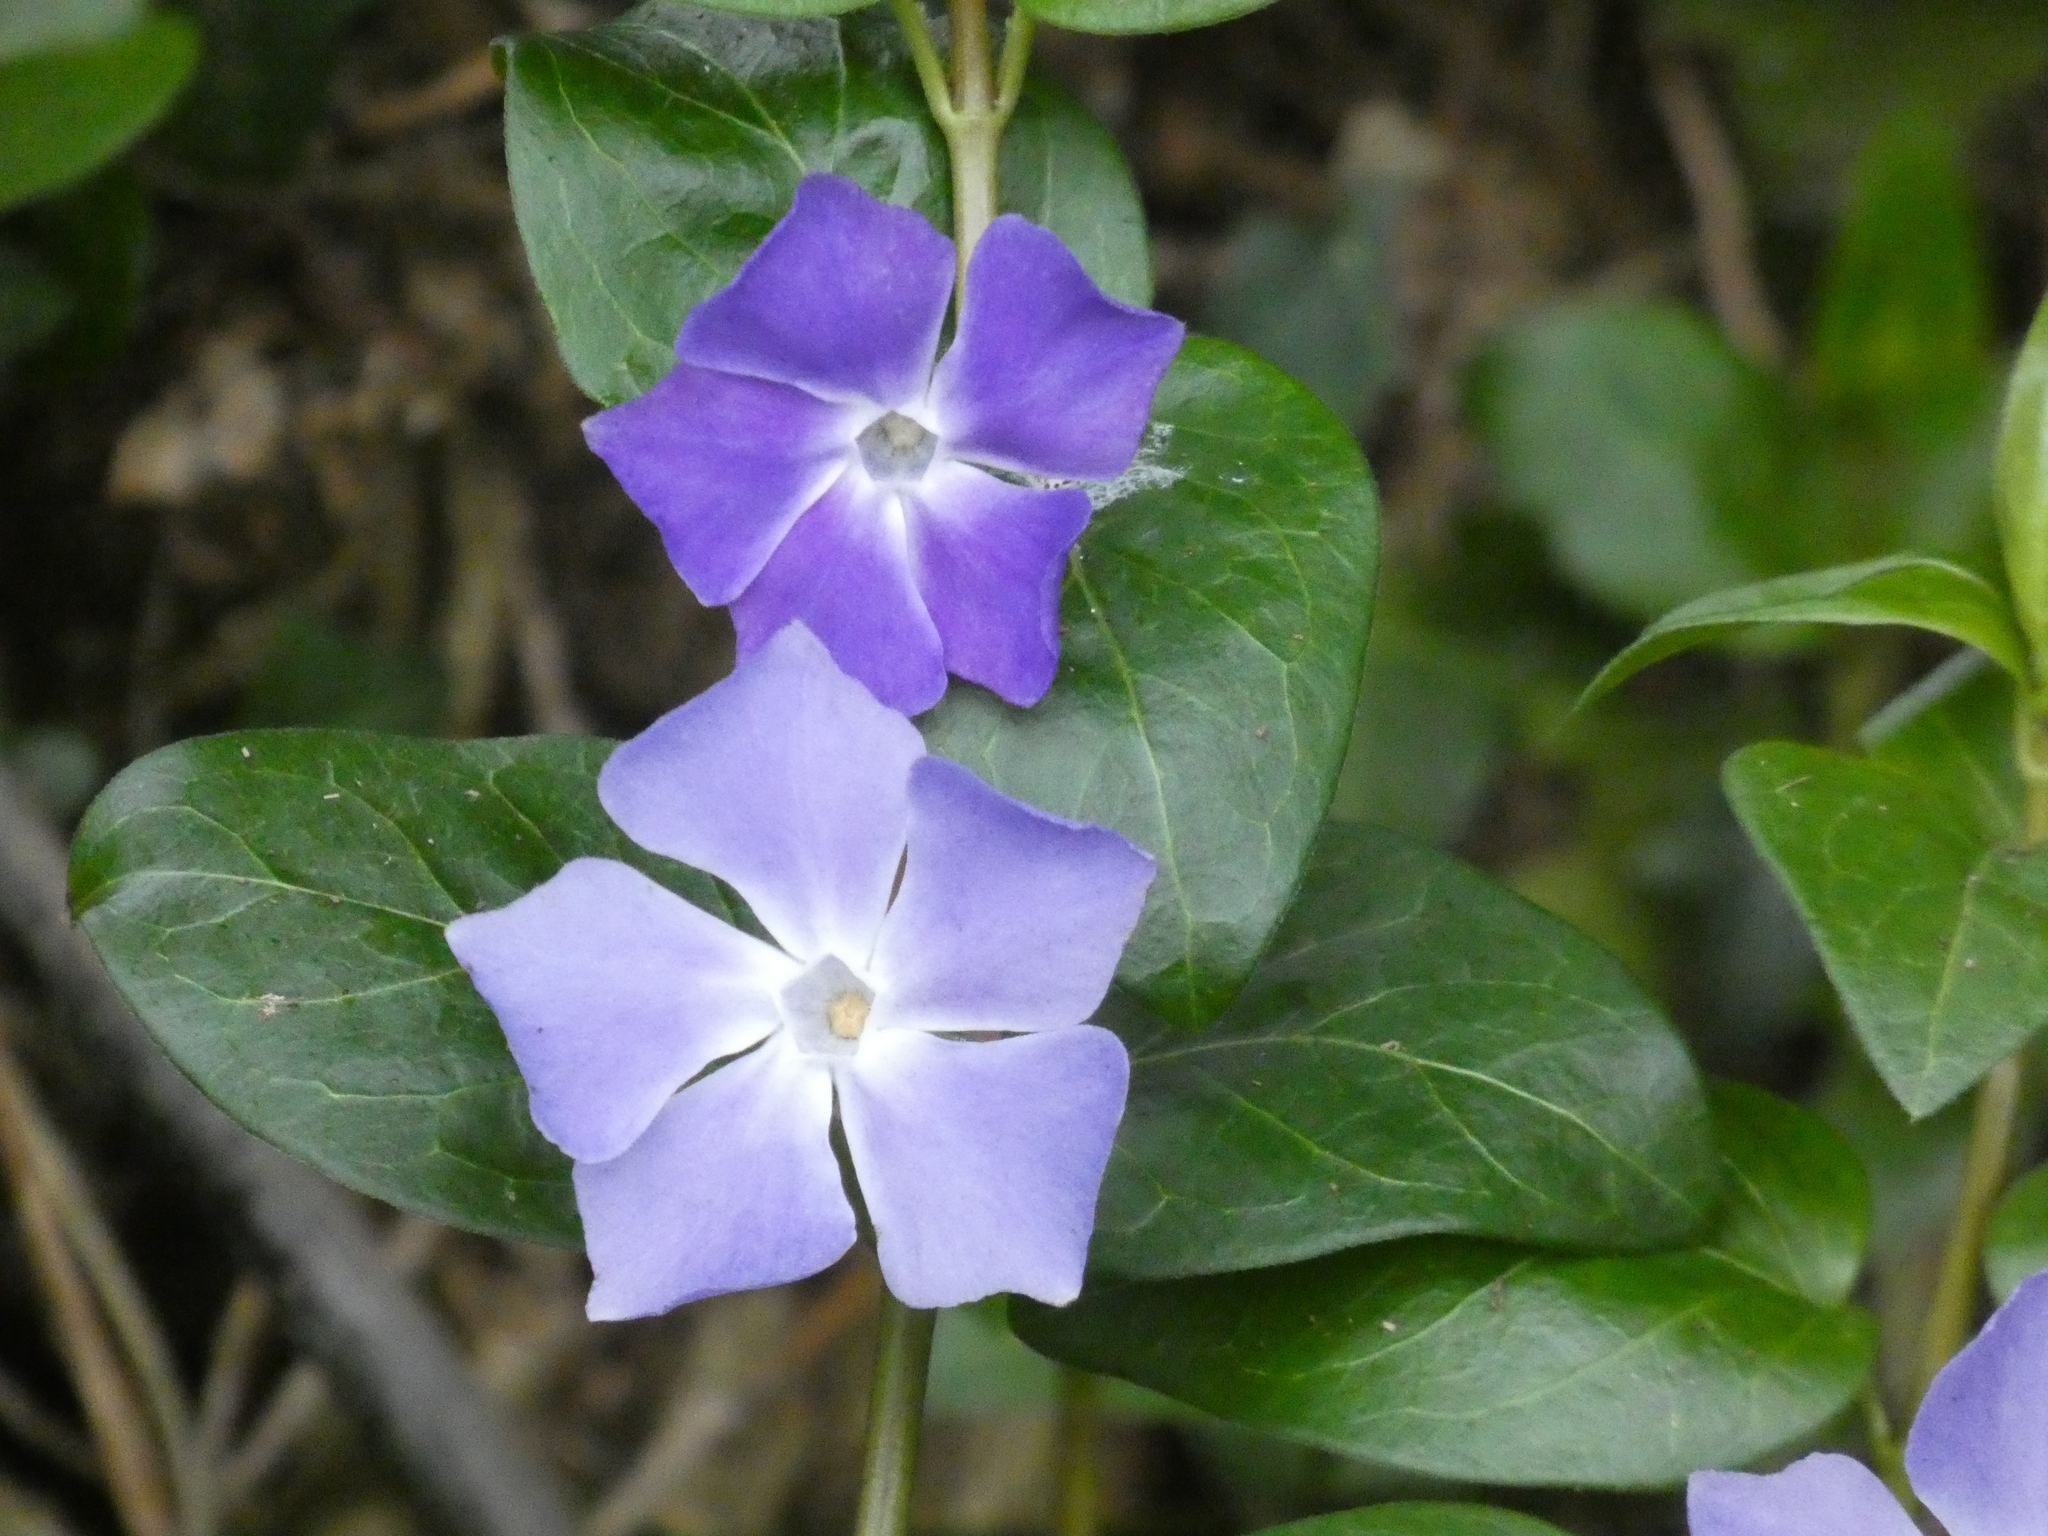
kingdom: Plantae
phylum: Tracheophyta
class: Magnoliopsida
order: Gentianales
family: Apocynaceae
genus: Vinca
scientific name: Vinca major
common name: Greater periwinkle
